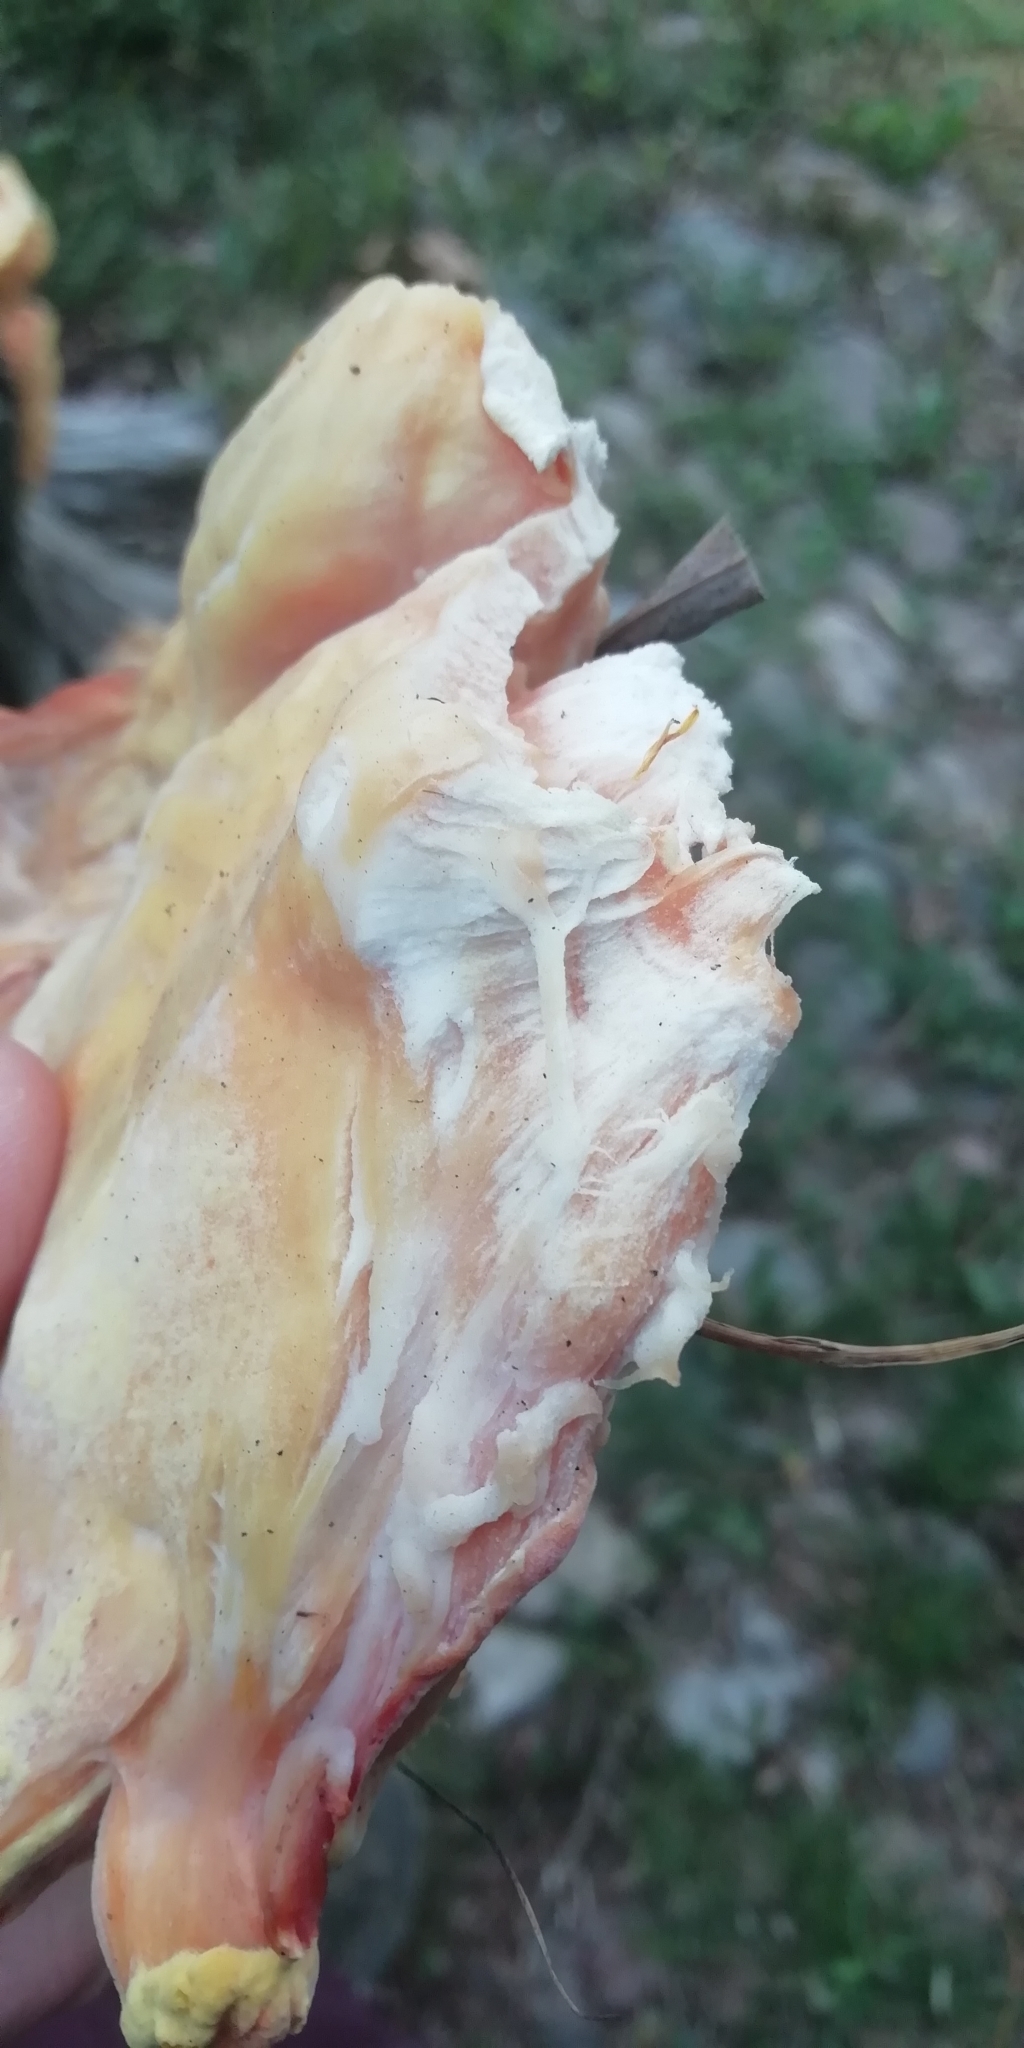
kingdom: Fungi
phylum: Basidiomycota
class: Agaricomycetes
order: Polyporales
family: Laetiporaceae
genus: Laetiporus
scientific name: Laetiporus sulphureus
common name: Chicken of the woods
